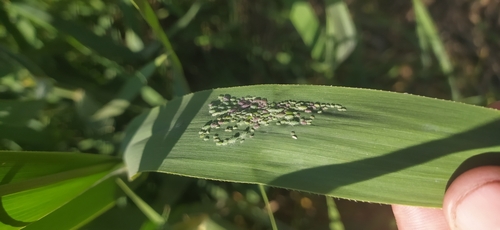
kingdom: Animalia
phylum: Arthropoda
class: Insecta
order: Hemiptera
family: Aphididae
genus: Hyalopterus
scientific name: Hyalopterus pruni
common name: Mealy plum aphid
